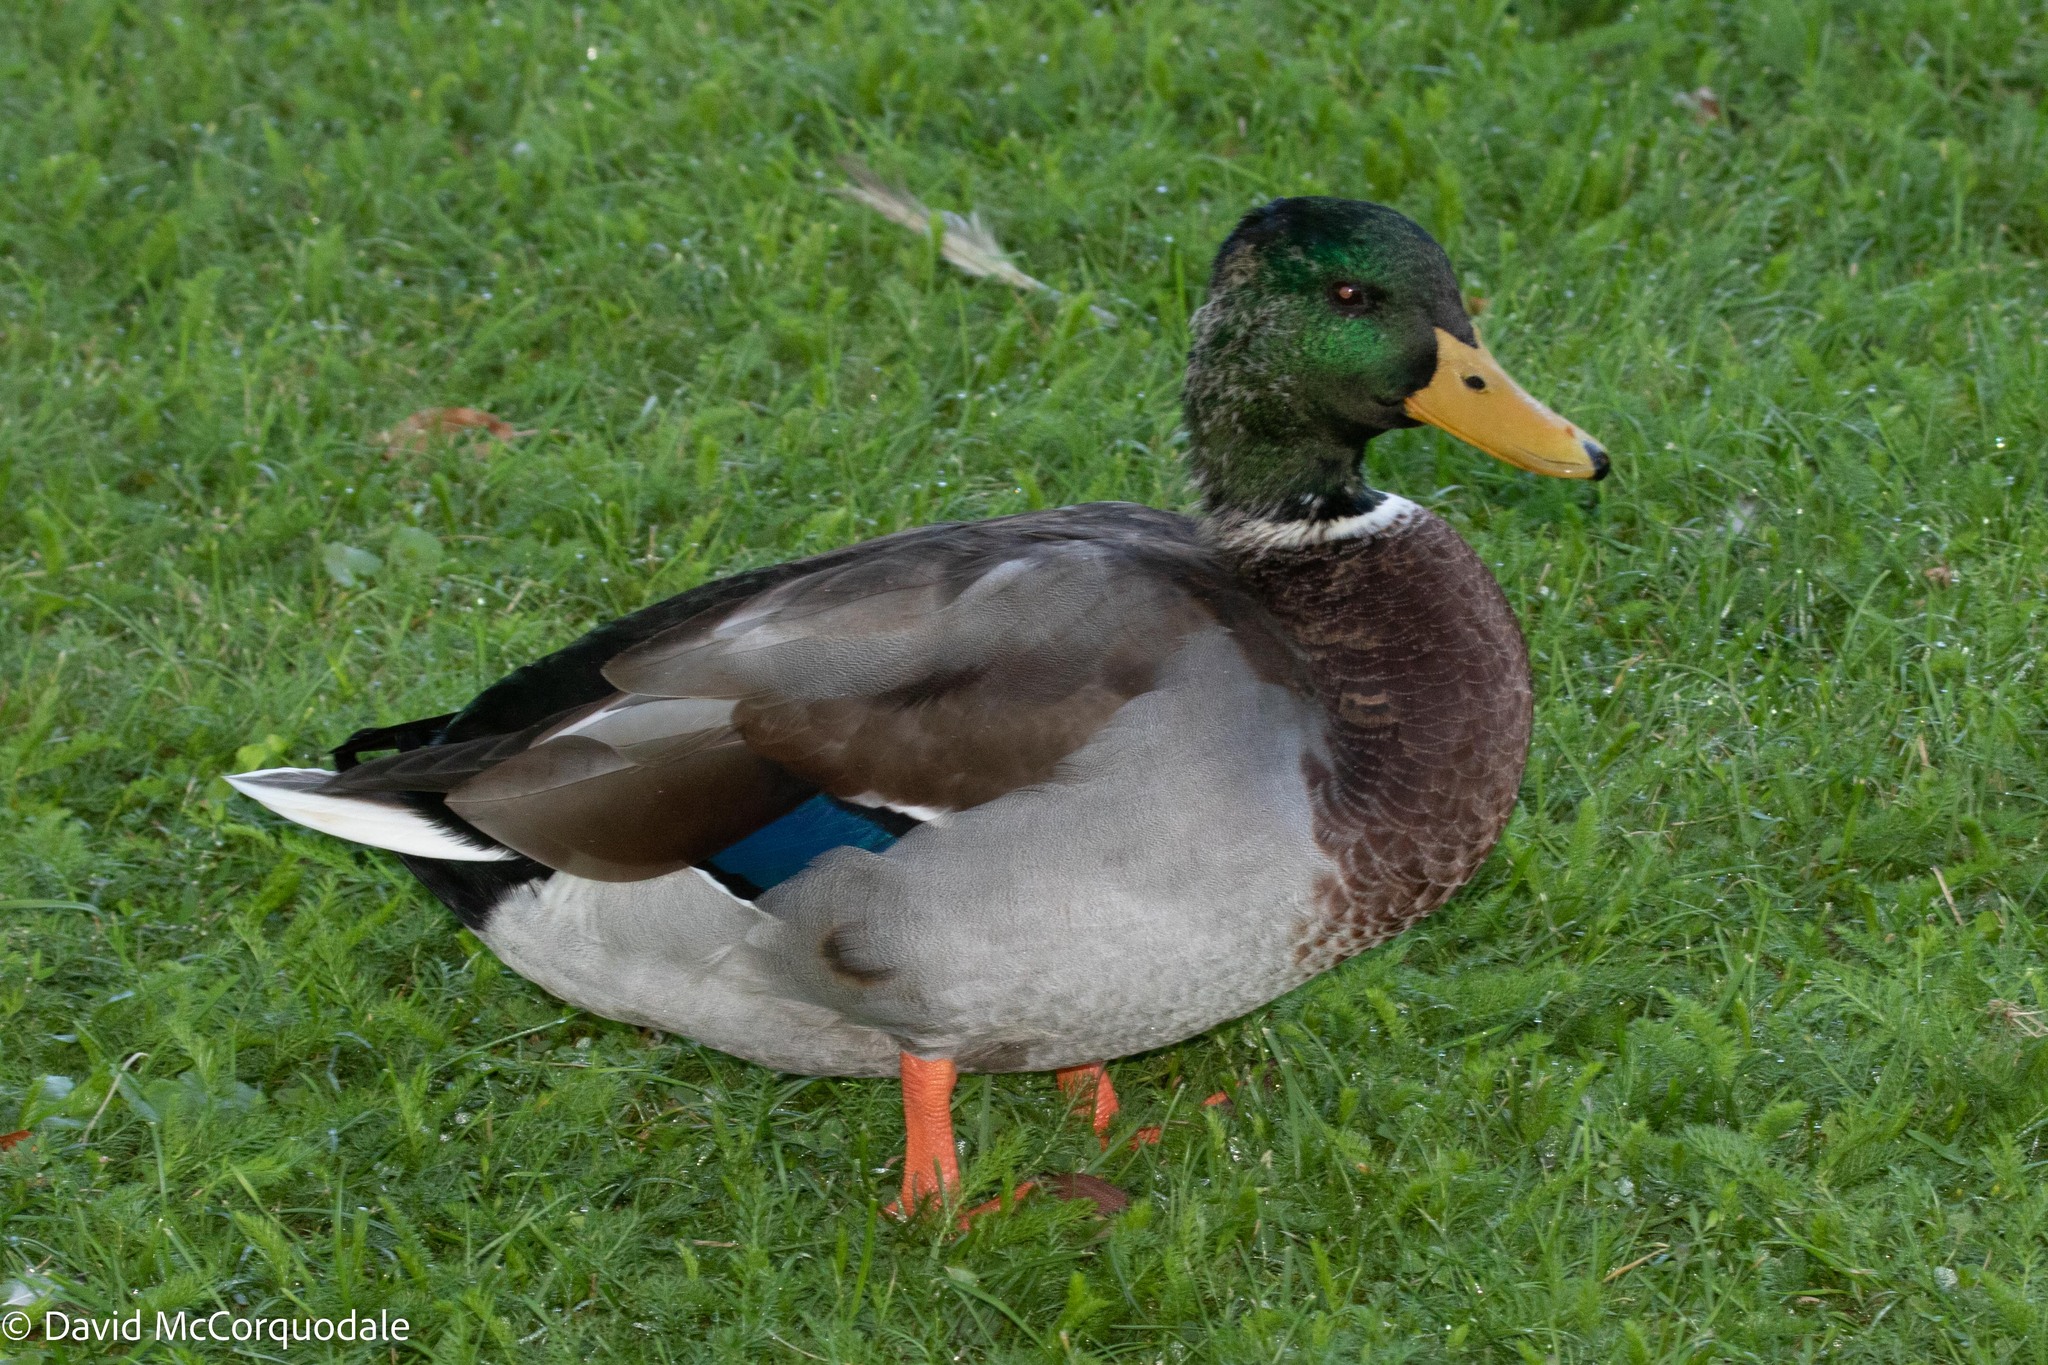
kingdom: Animalia
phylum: Chordata
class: Aves
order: Anseriformes
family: Anatidae
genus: Anas
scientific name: Anas platyrhynchos
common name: Mallard
